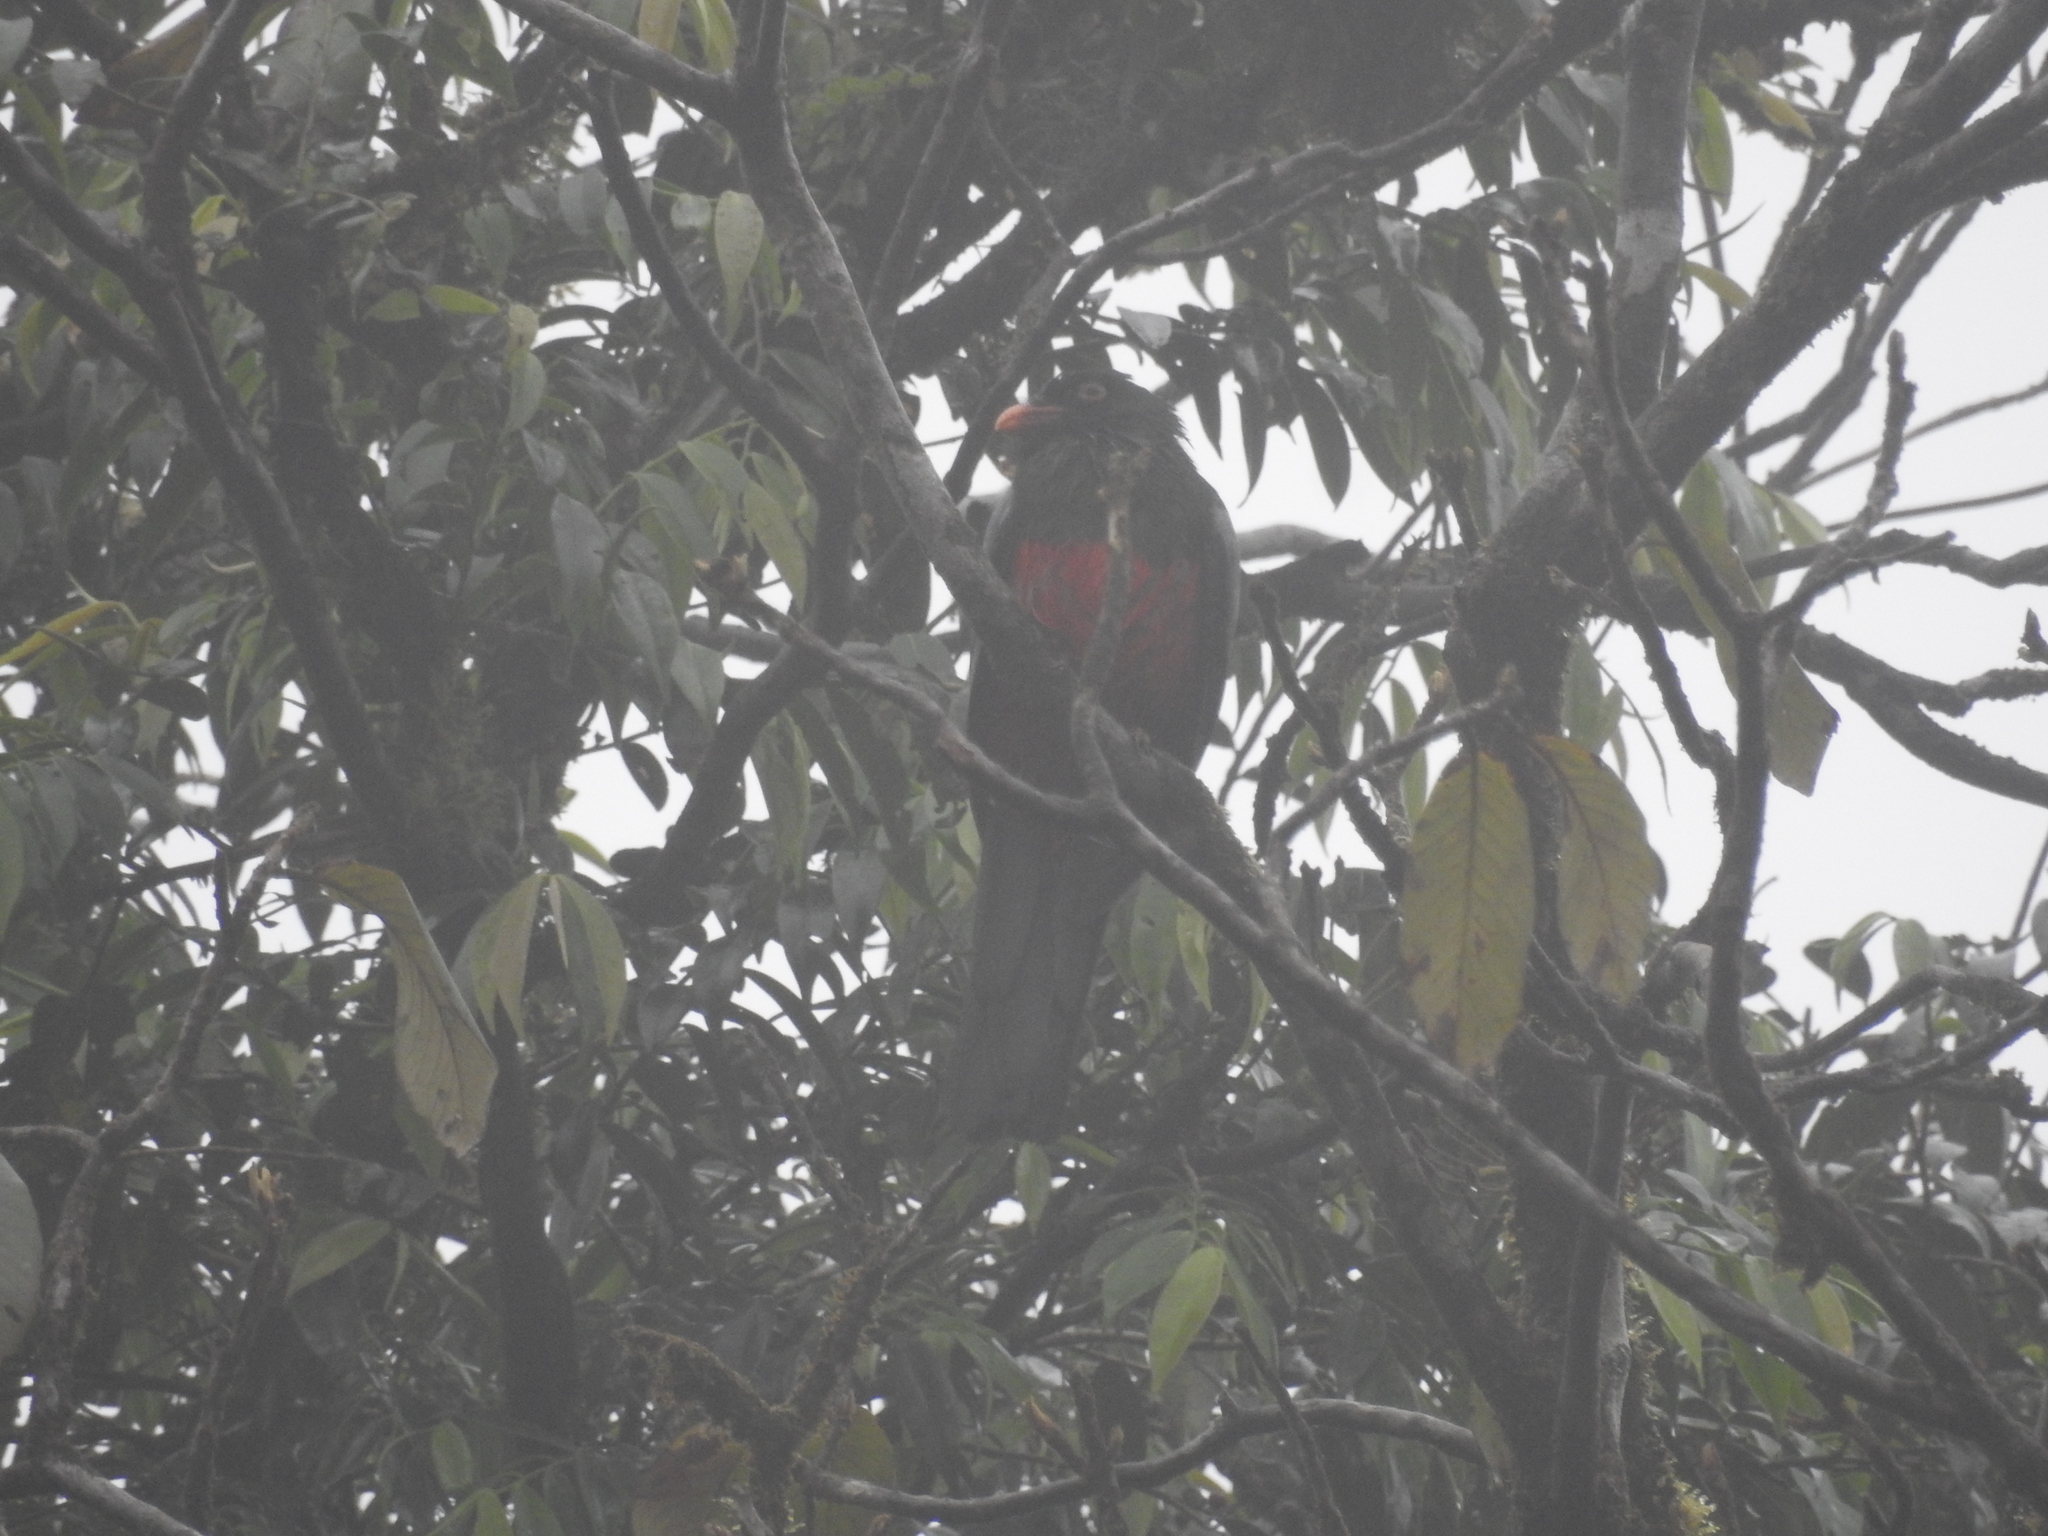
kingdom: Animalia
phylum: Chordata
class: Aves
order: Trogoniformes
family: Trogonidae
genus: Trogon
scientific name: Trogon massena
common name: Slaty-tailed trogon
